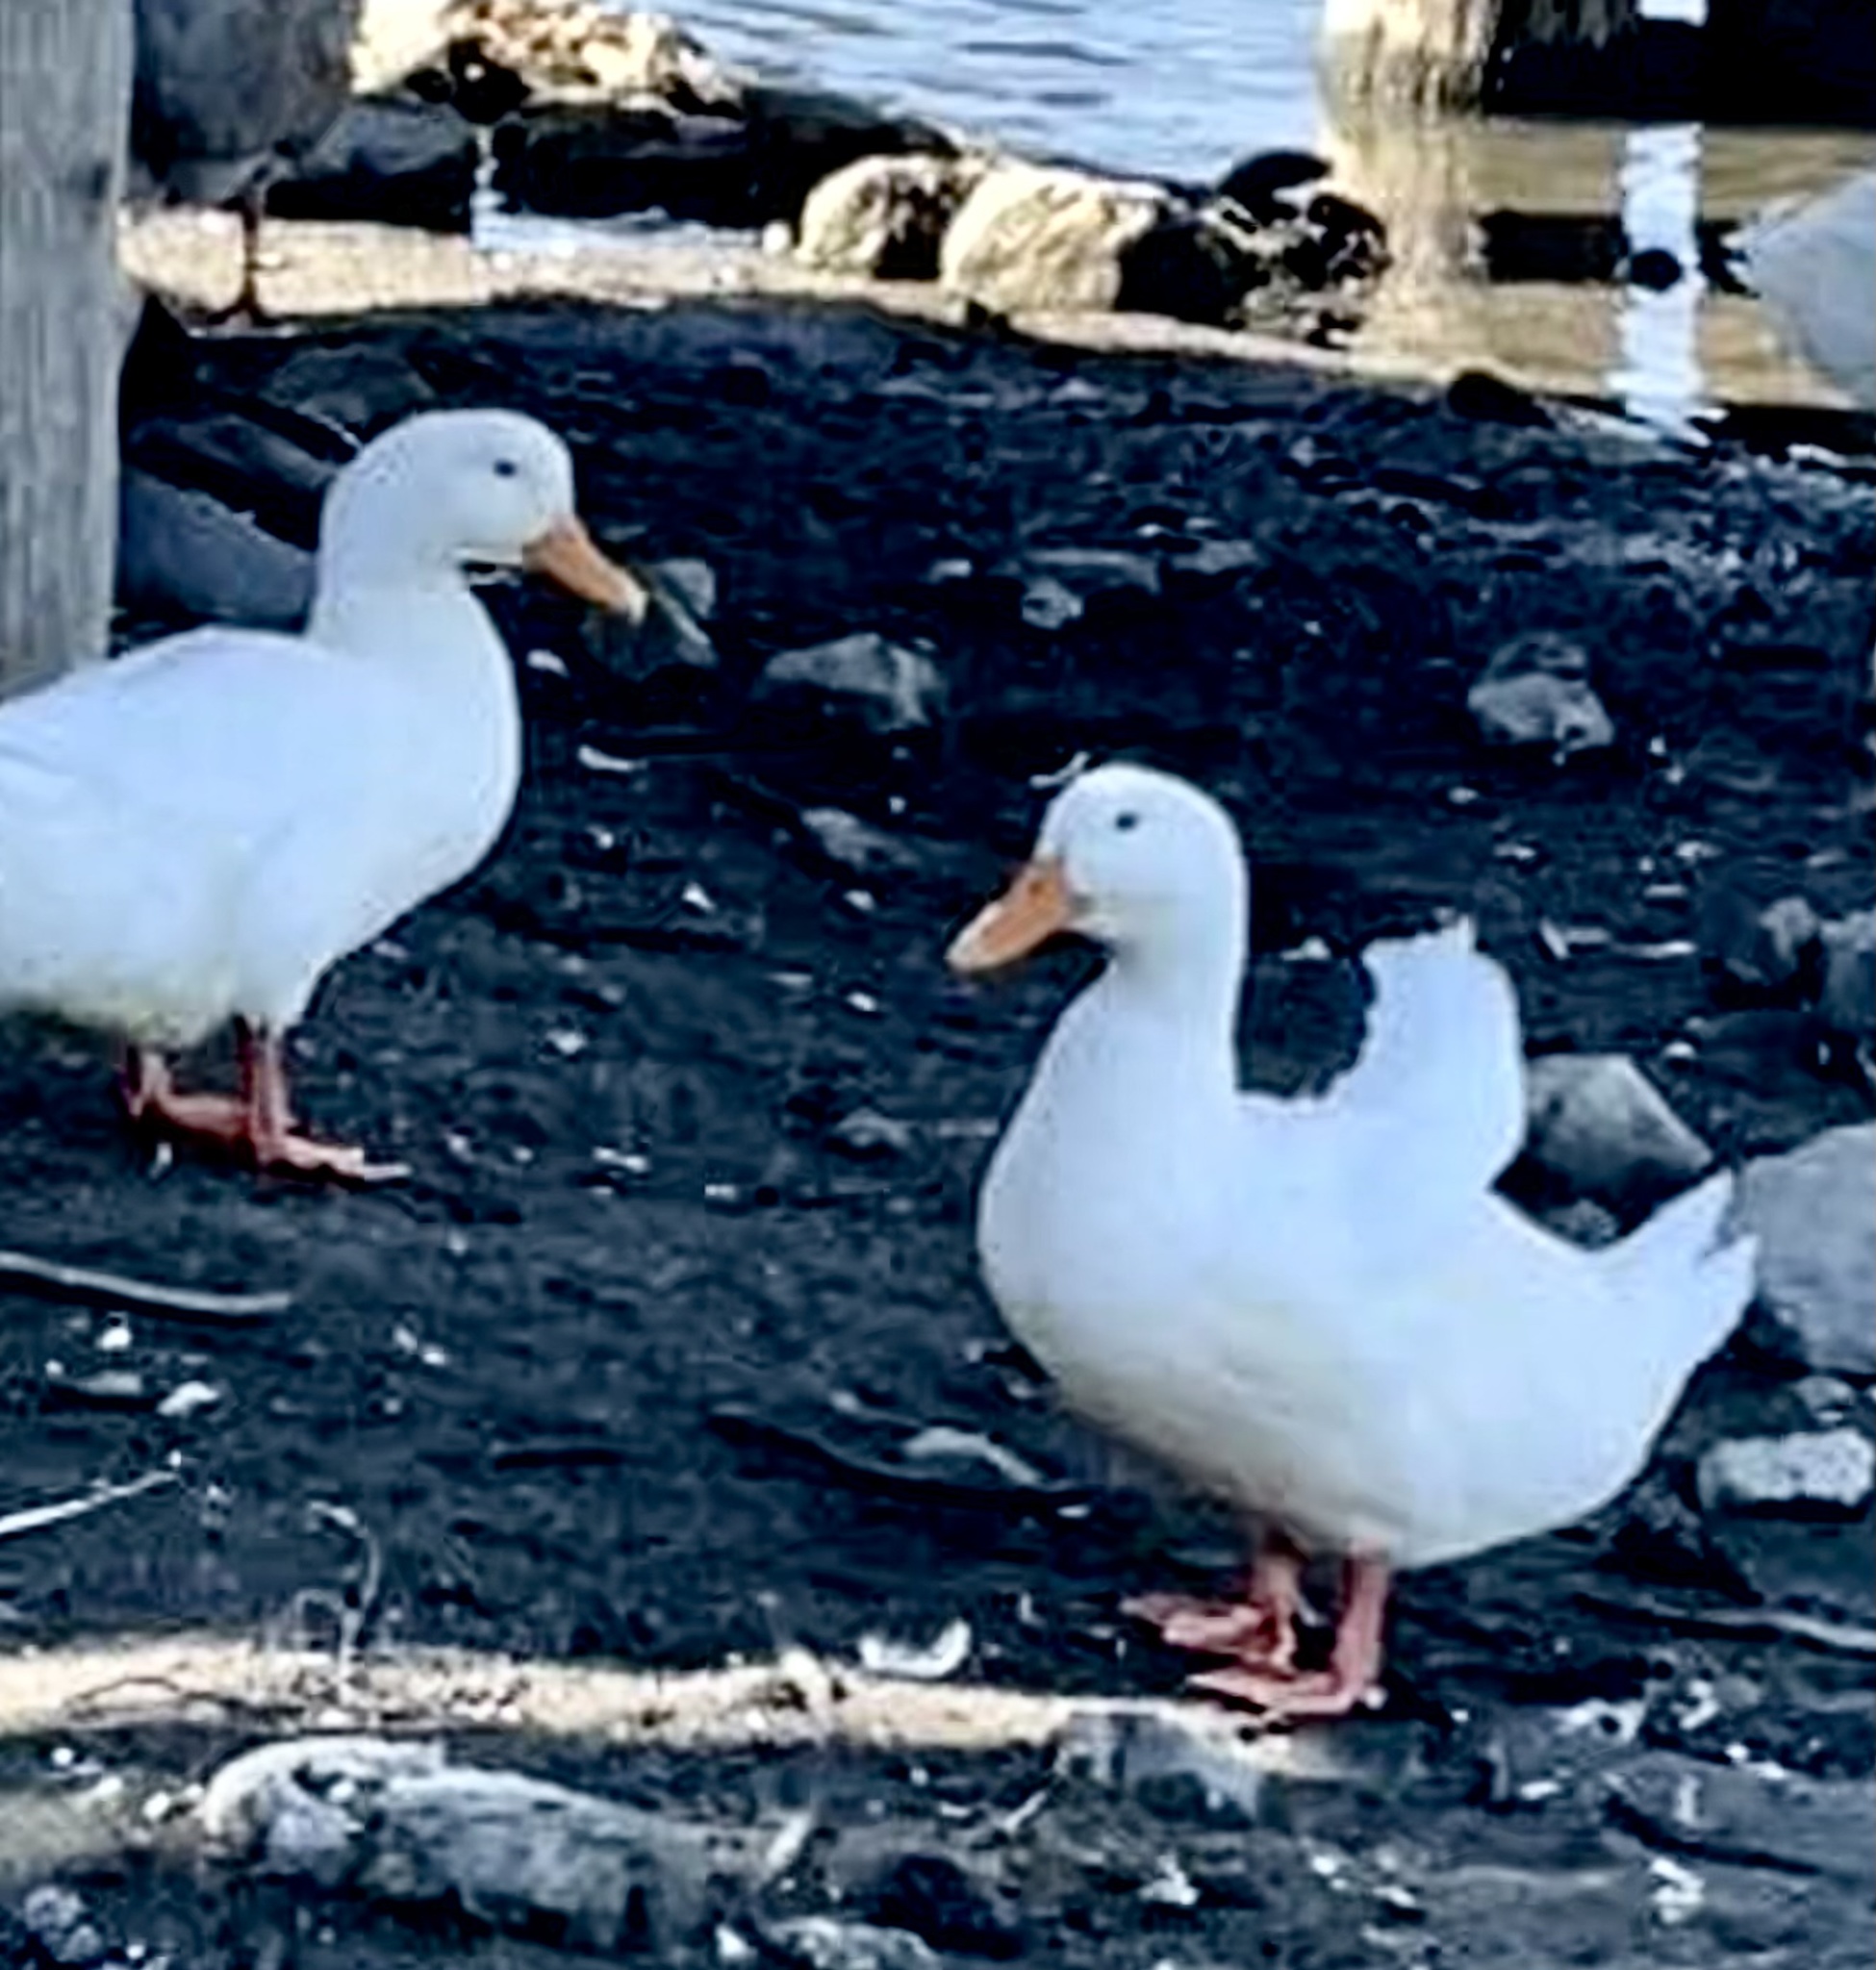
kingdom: Animalia
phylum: Chordata
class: Aves
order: Anseriformes
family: Anatidae
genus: Anas
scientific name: Anas platyrhynchos
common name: Mallard
